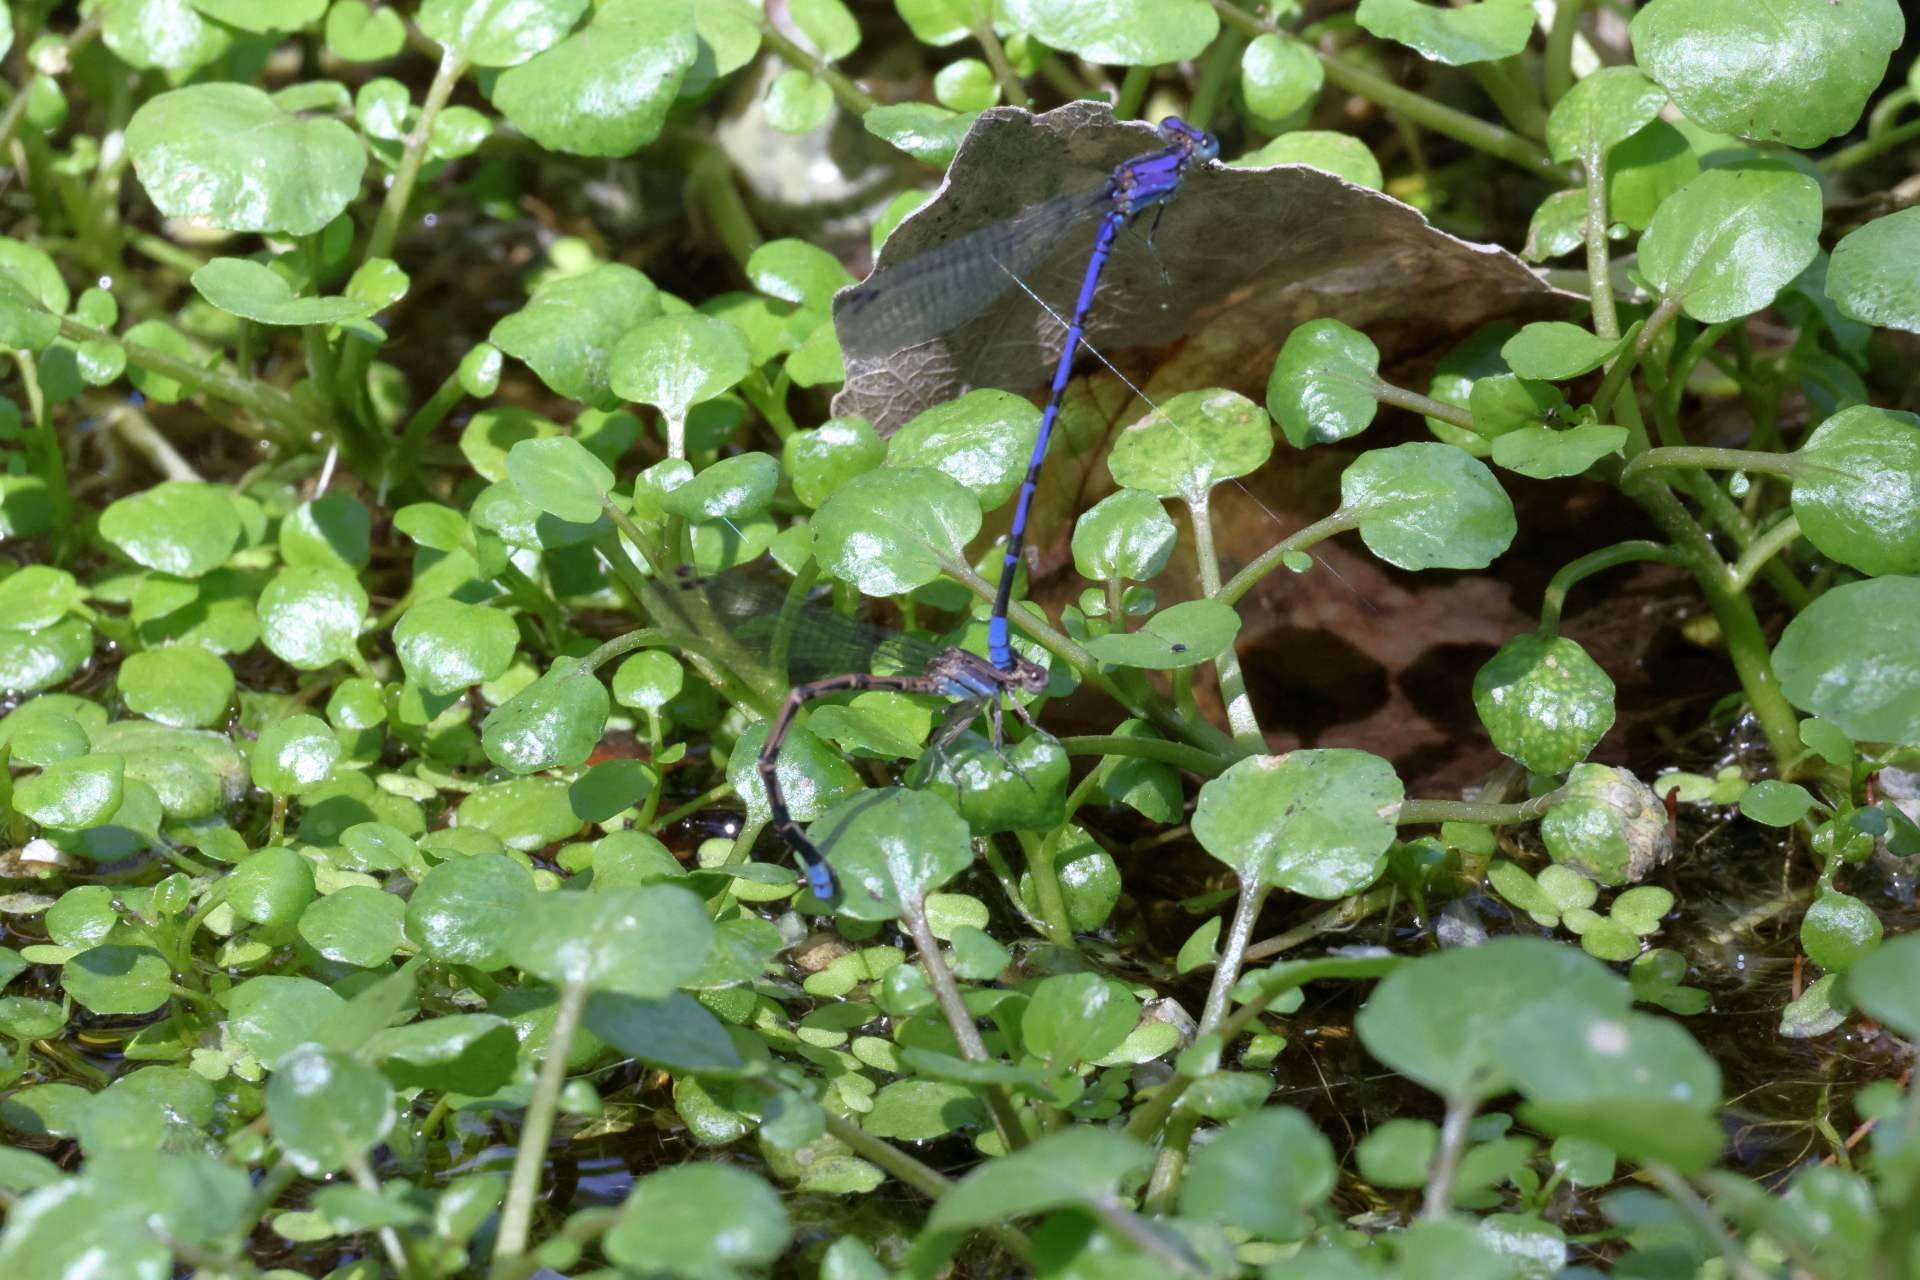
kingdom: Animalia
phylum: Arthropoda
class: Insecta
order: Odonata
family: Coenagrionidae
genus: Argia
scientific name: Argia extranea
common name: Spine-tipped dancer
